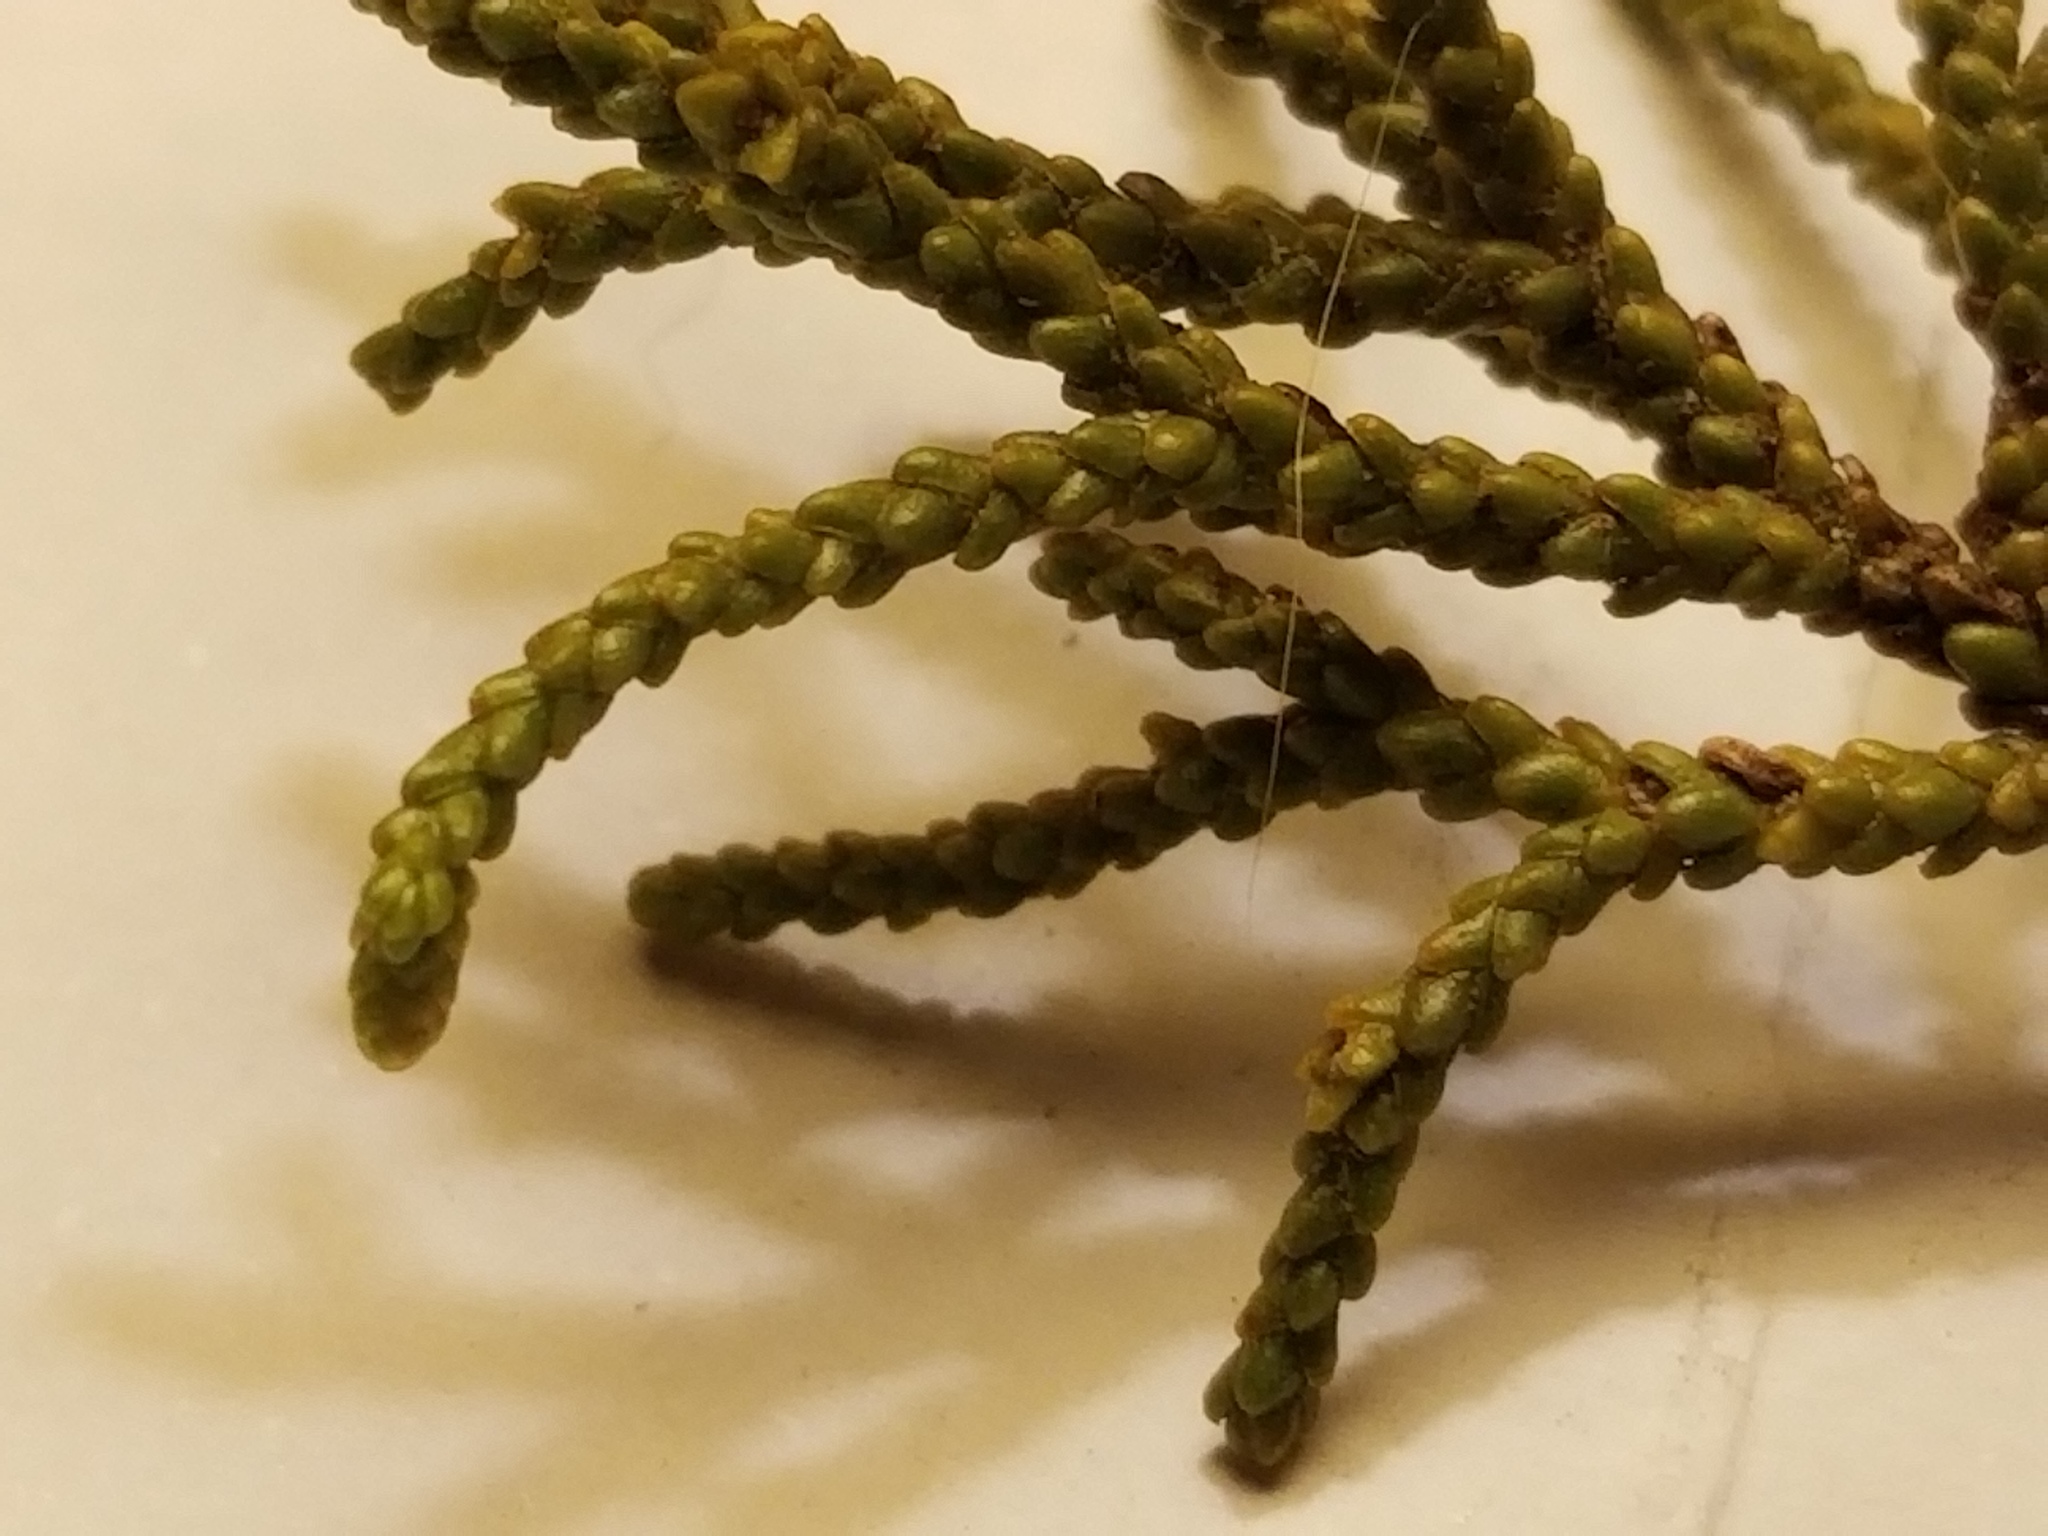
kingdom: Plantae
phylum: Tracheophyta
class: Pinopsida
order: Pinales
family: Podocarpaceae
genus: Lepidothamnus
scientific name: Lepidothamnus intermedius
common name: Yellow silver pine
